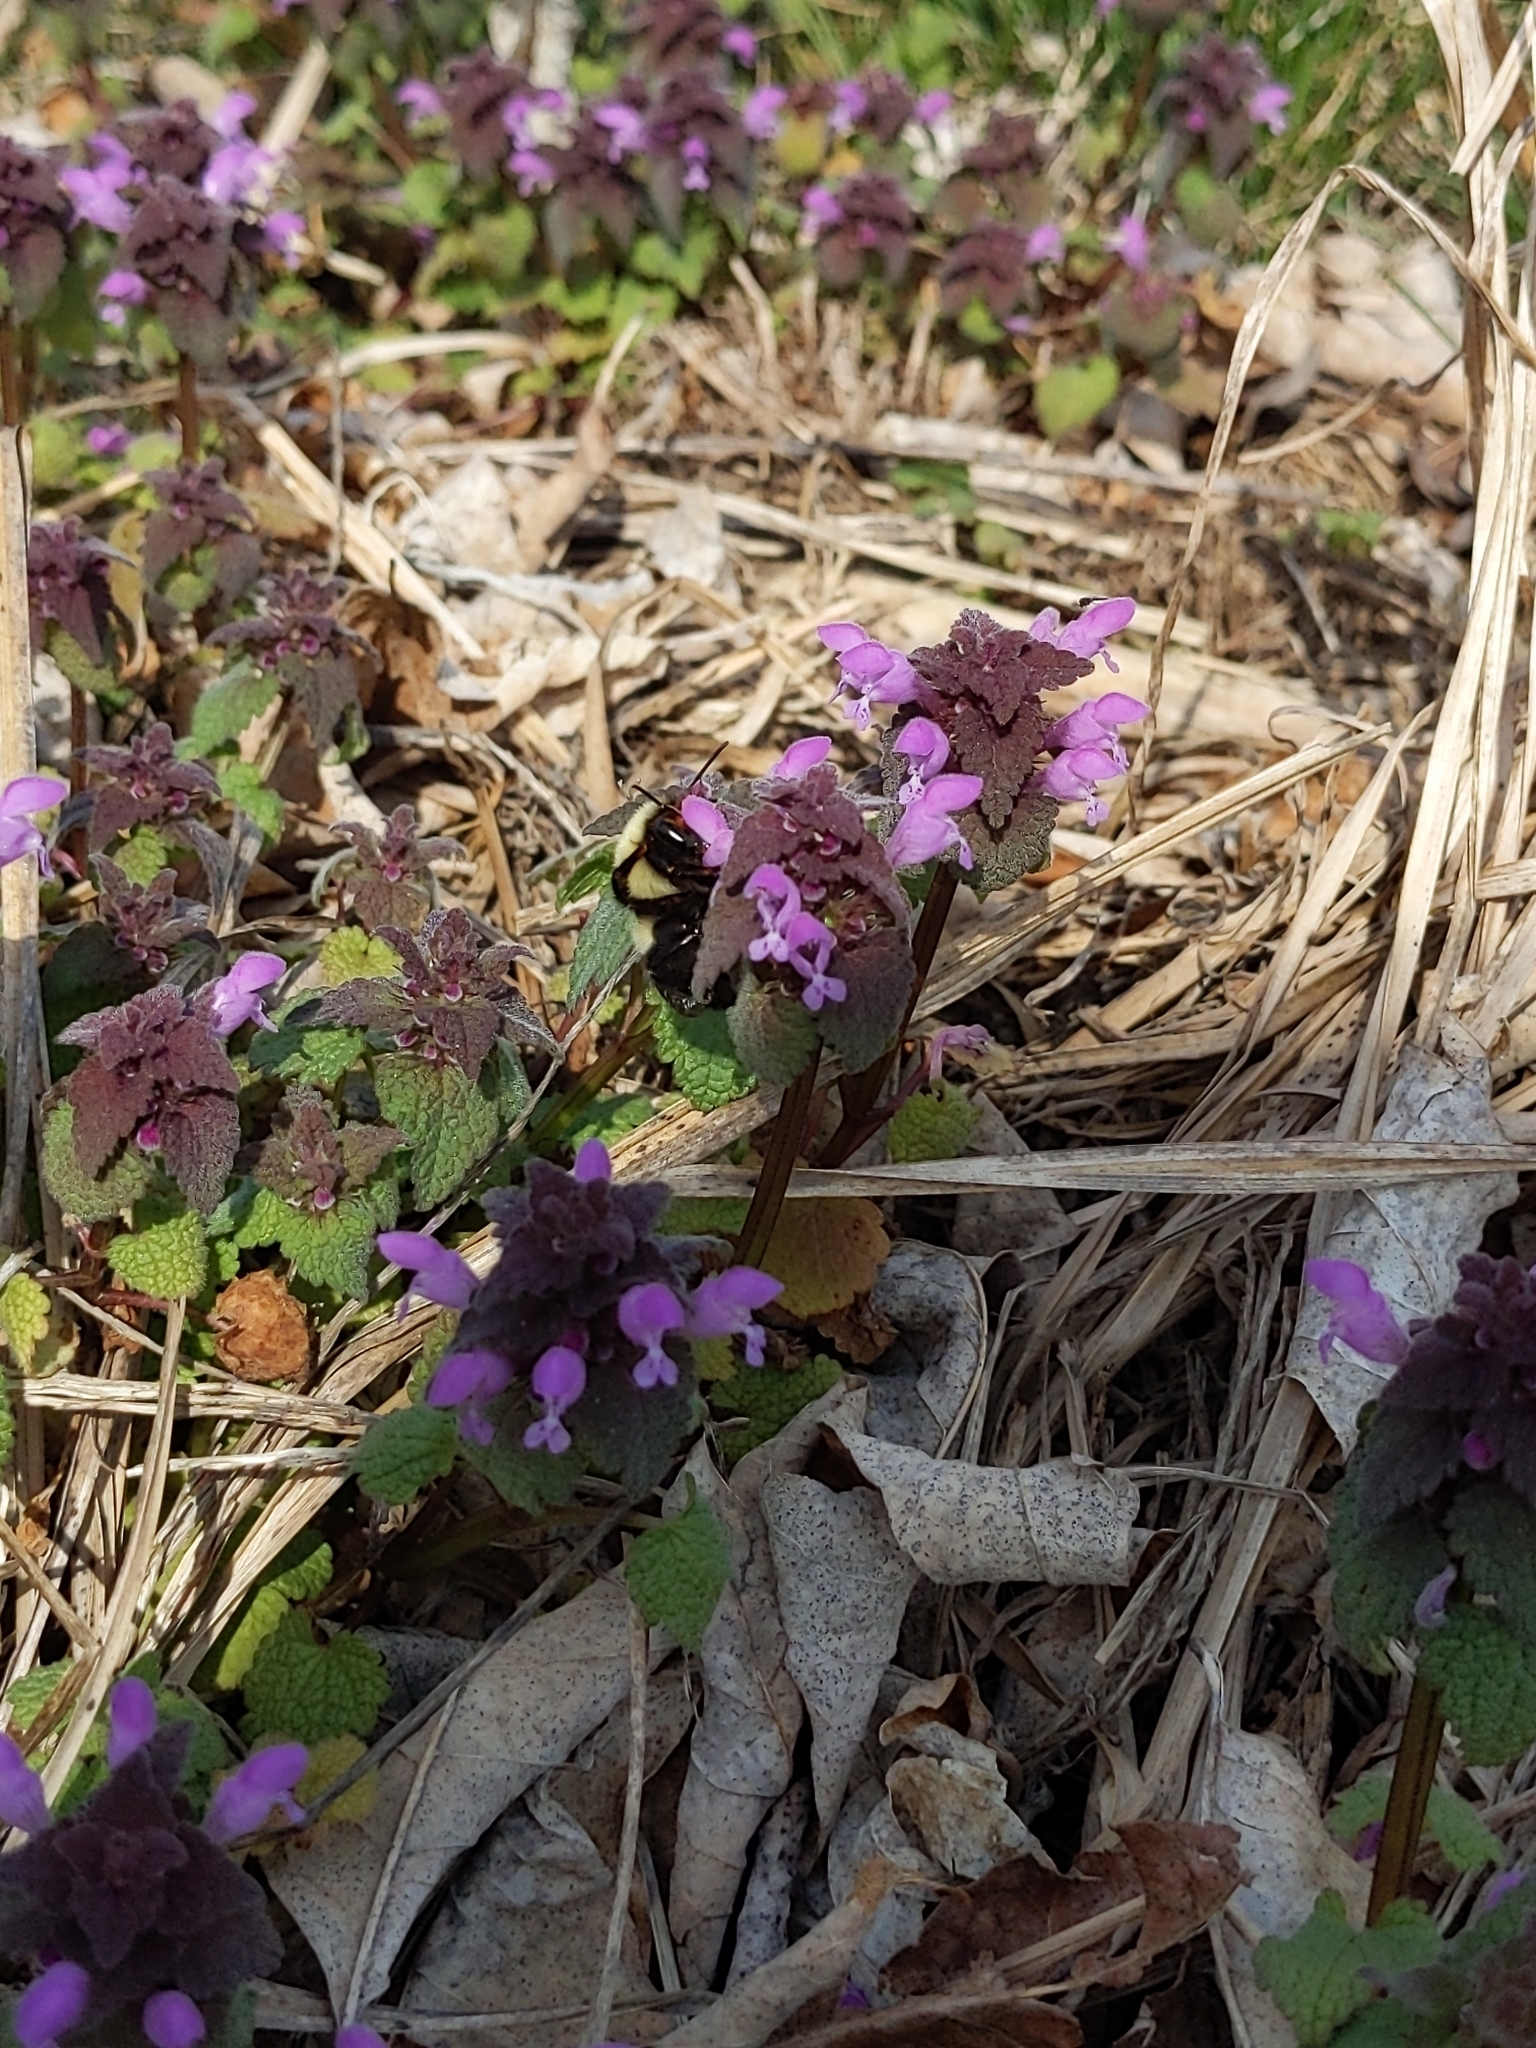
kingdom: Plantae
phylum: Tracheophyta
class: Magnoliopsida
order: Lamiales
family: Lamiaceae
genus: Lamium
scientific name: Lamium purpureum
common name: Red dead-nettle
